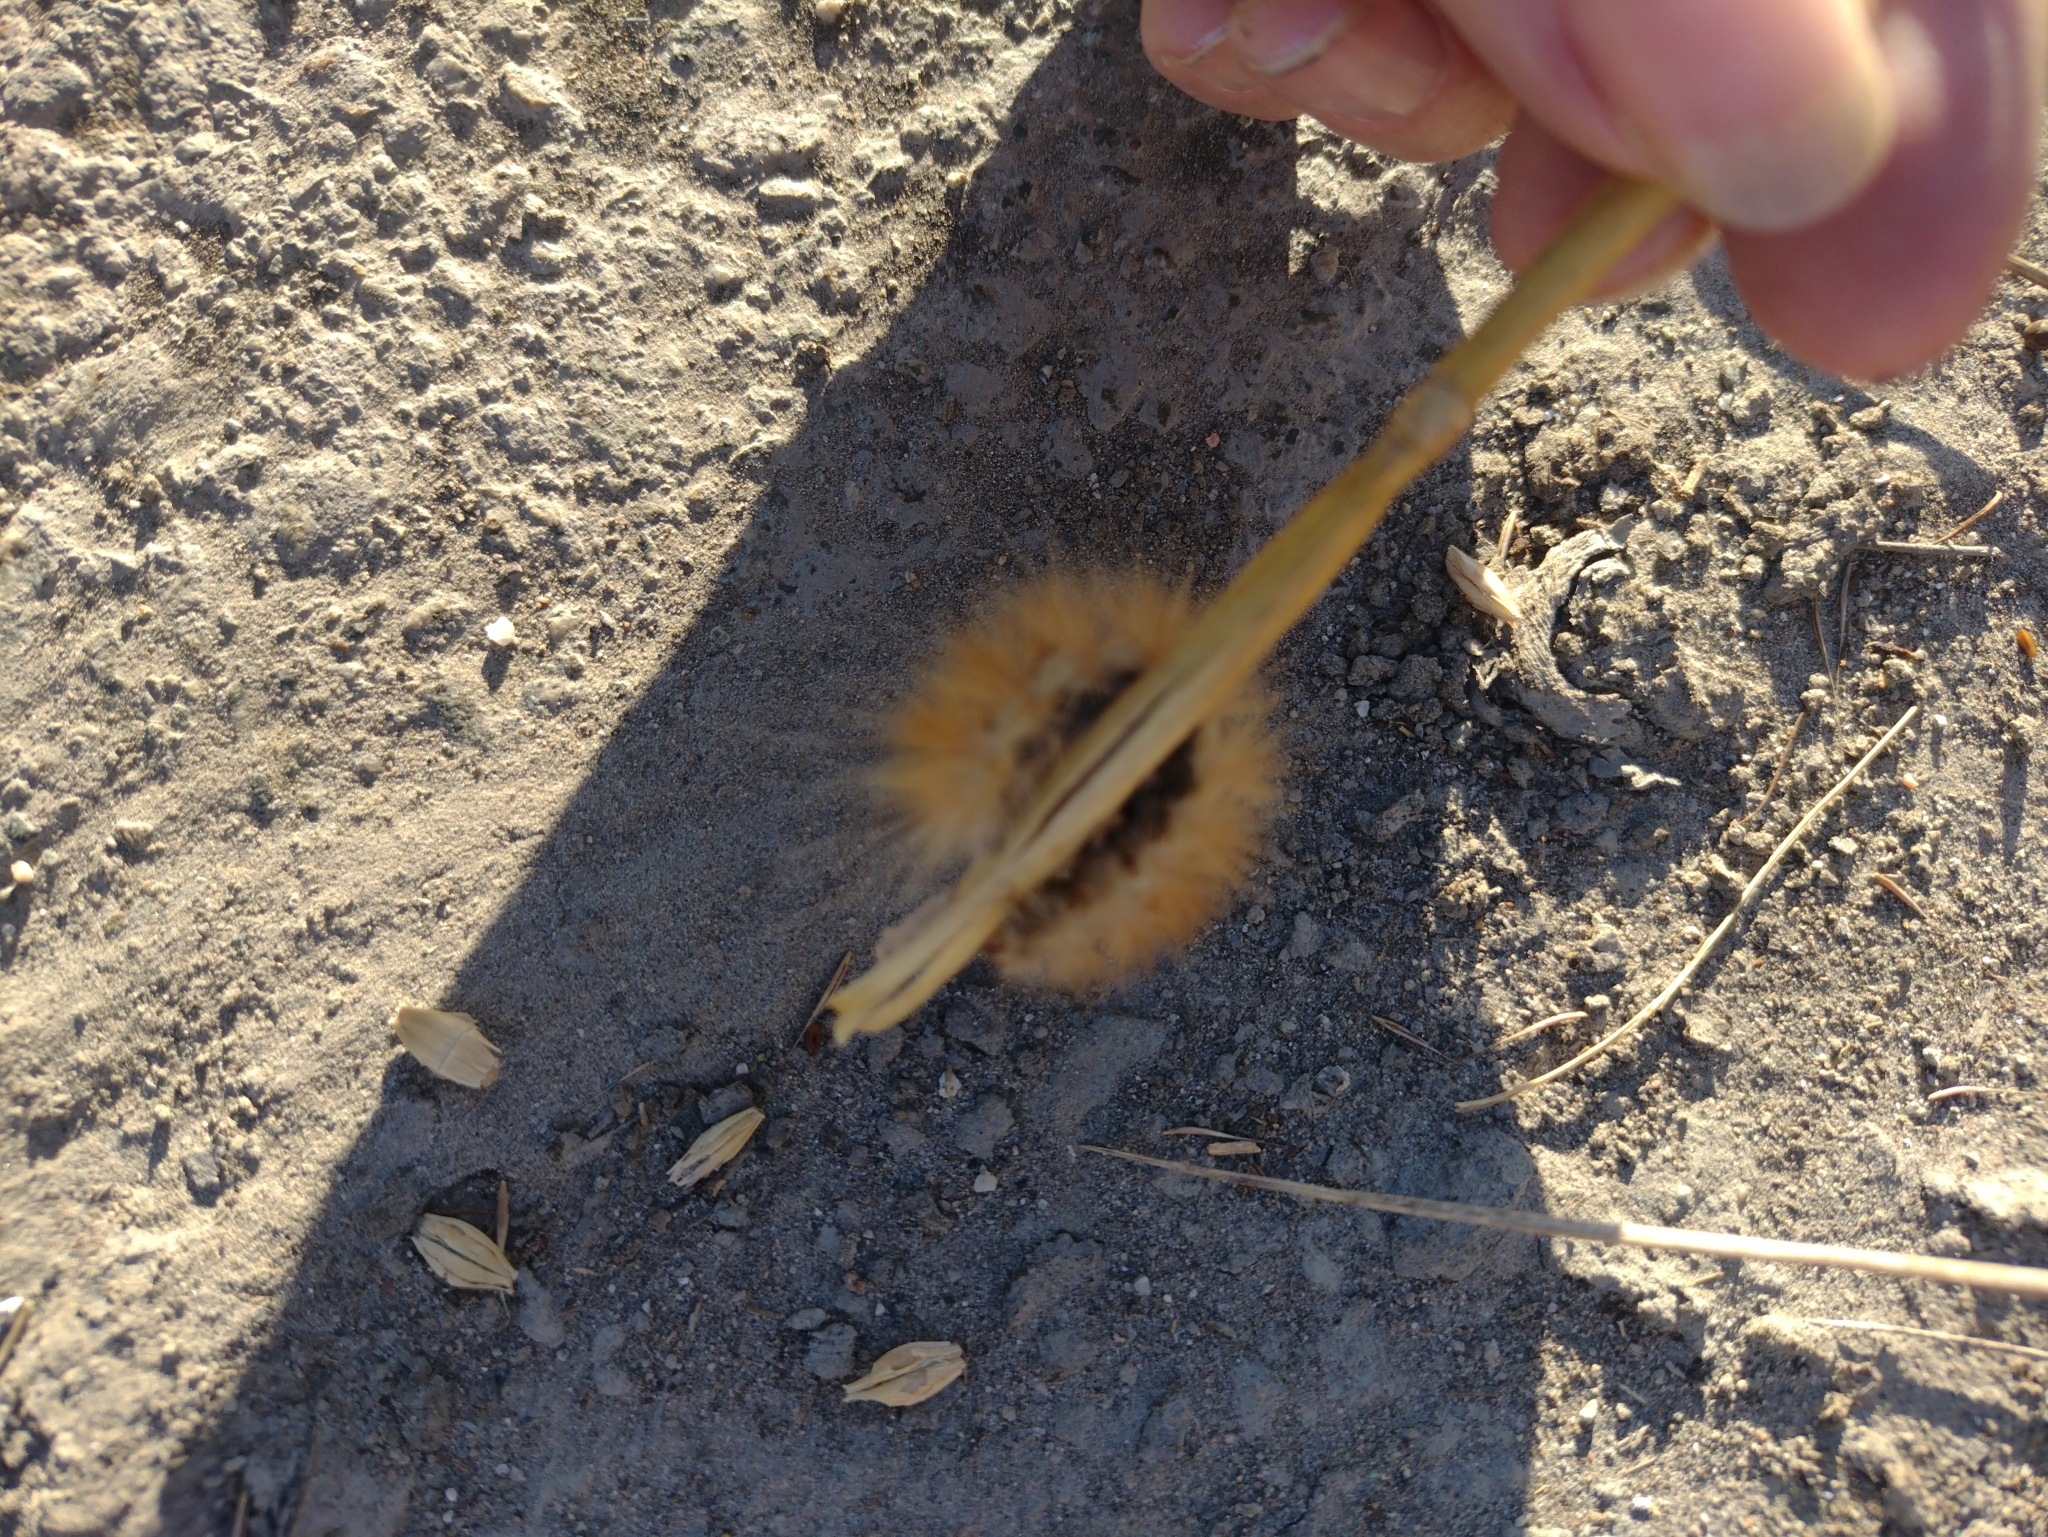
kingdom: Animalia
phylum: Arthropoda
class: Insecta
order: Lepidoptera
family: Erebidae
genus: Spilosoma
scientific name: Spilosoma virginica
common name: Virginia tiger moth
